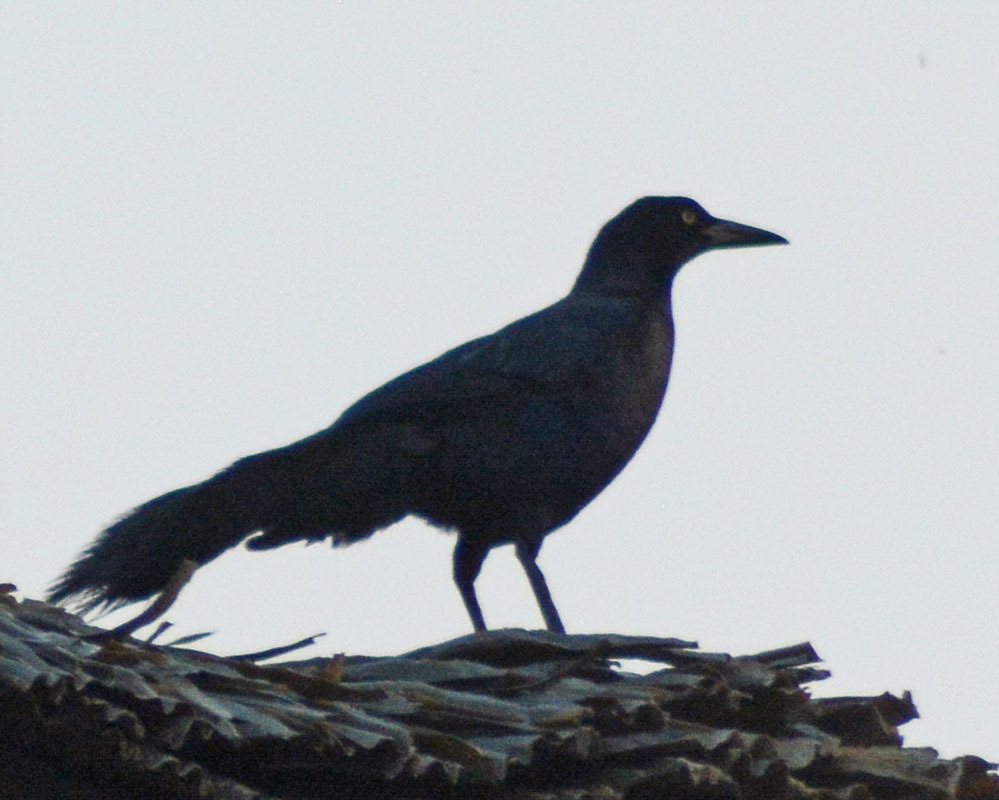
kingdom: Animalia
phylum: Chordata
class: Aves
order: Passeriformes
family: Icteridae
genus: Quiscalus
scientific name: Quiscalus mexicanus
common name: Great-tailed grackle
